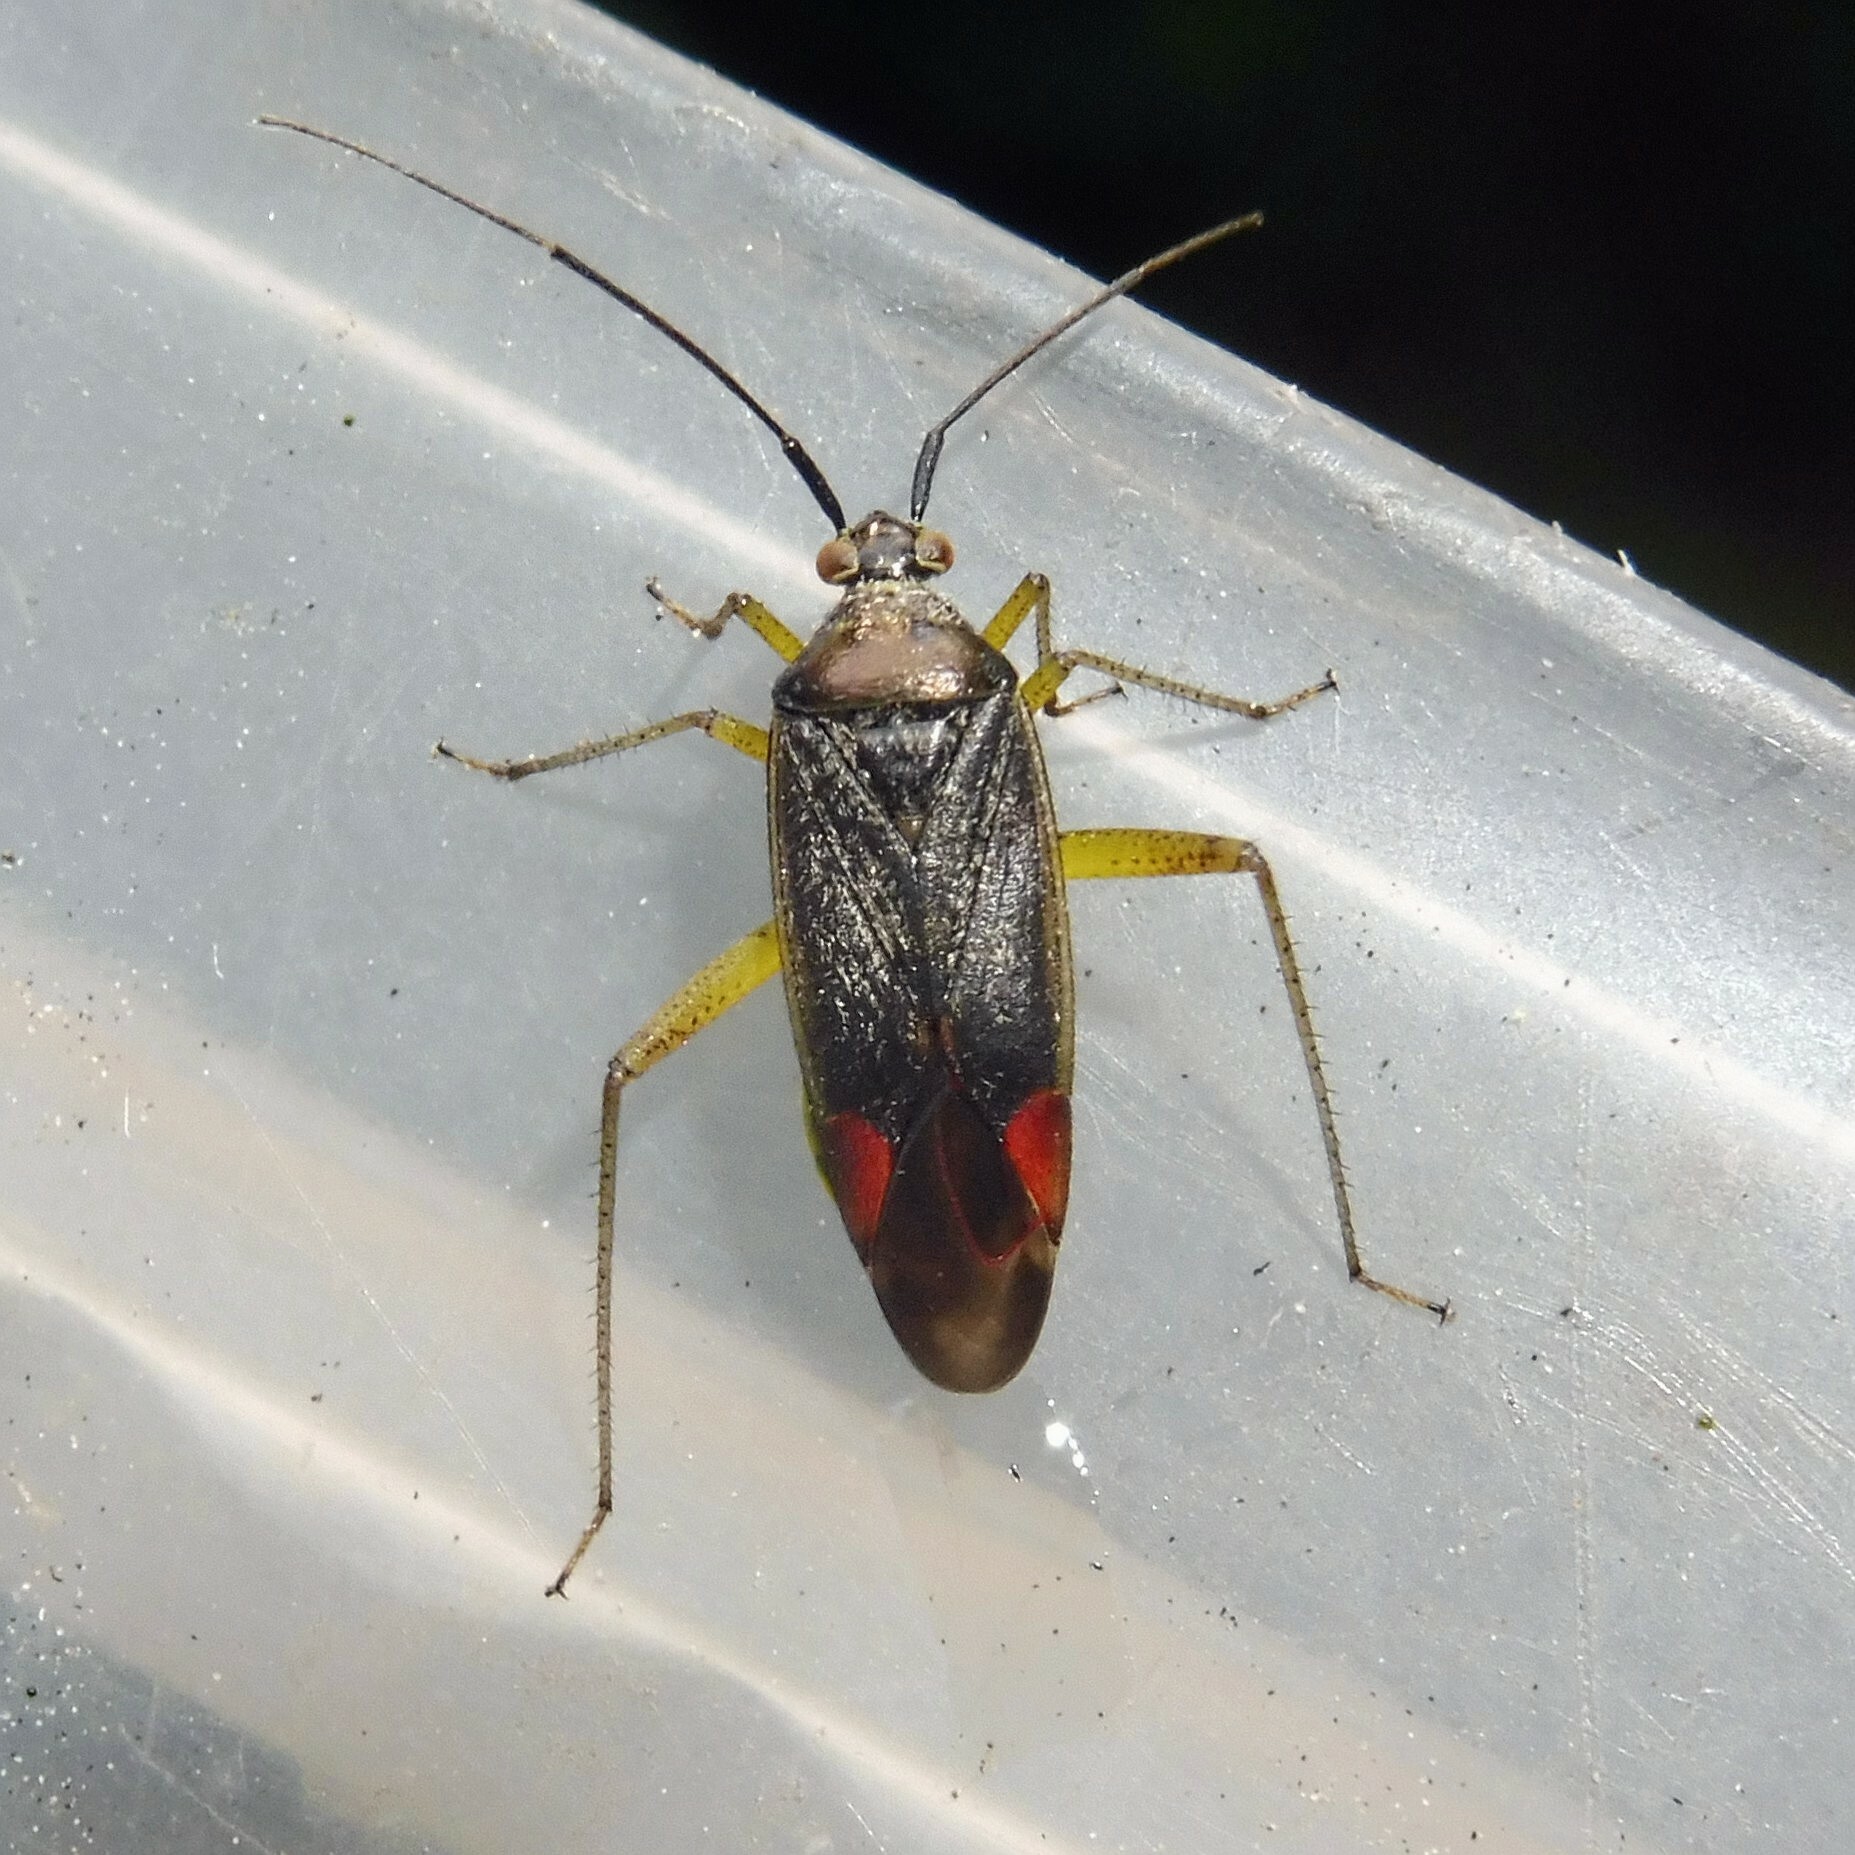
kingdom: Animalia
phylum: Arthropoda
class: Insecta
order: Hemiptera
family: Miridae
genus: Closterotomus
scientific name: Closterotomus trivialis
